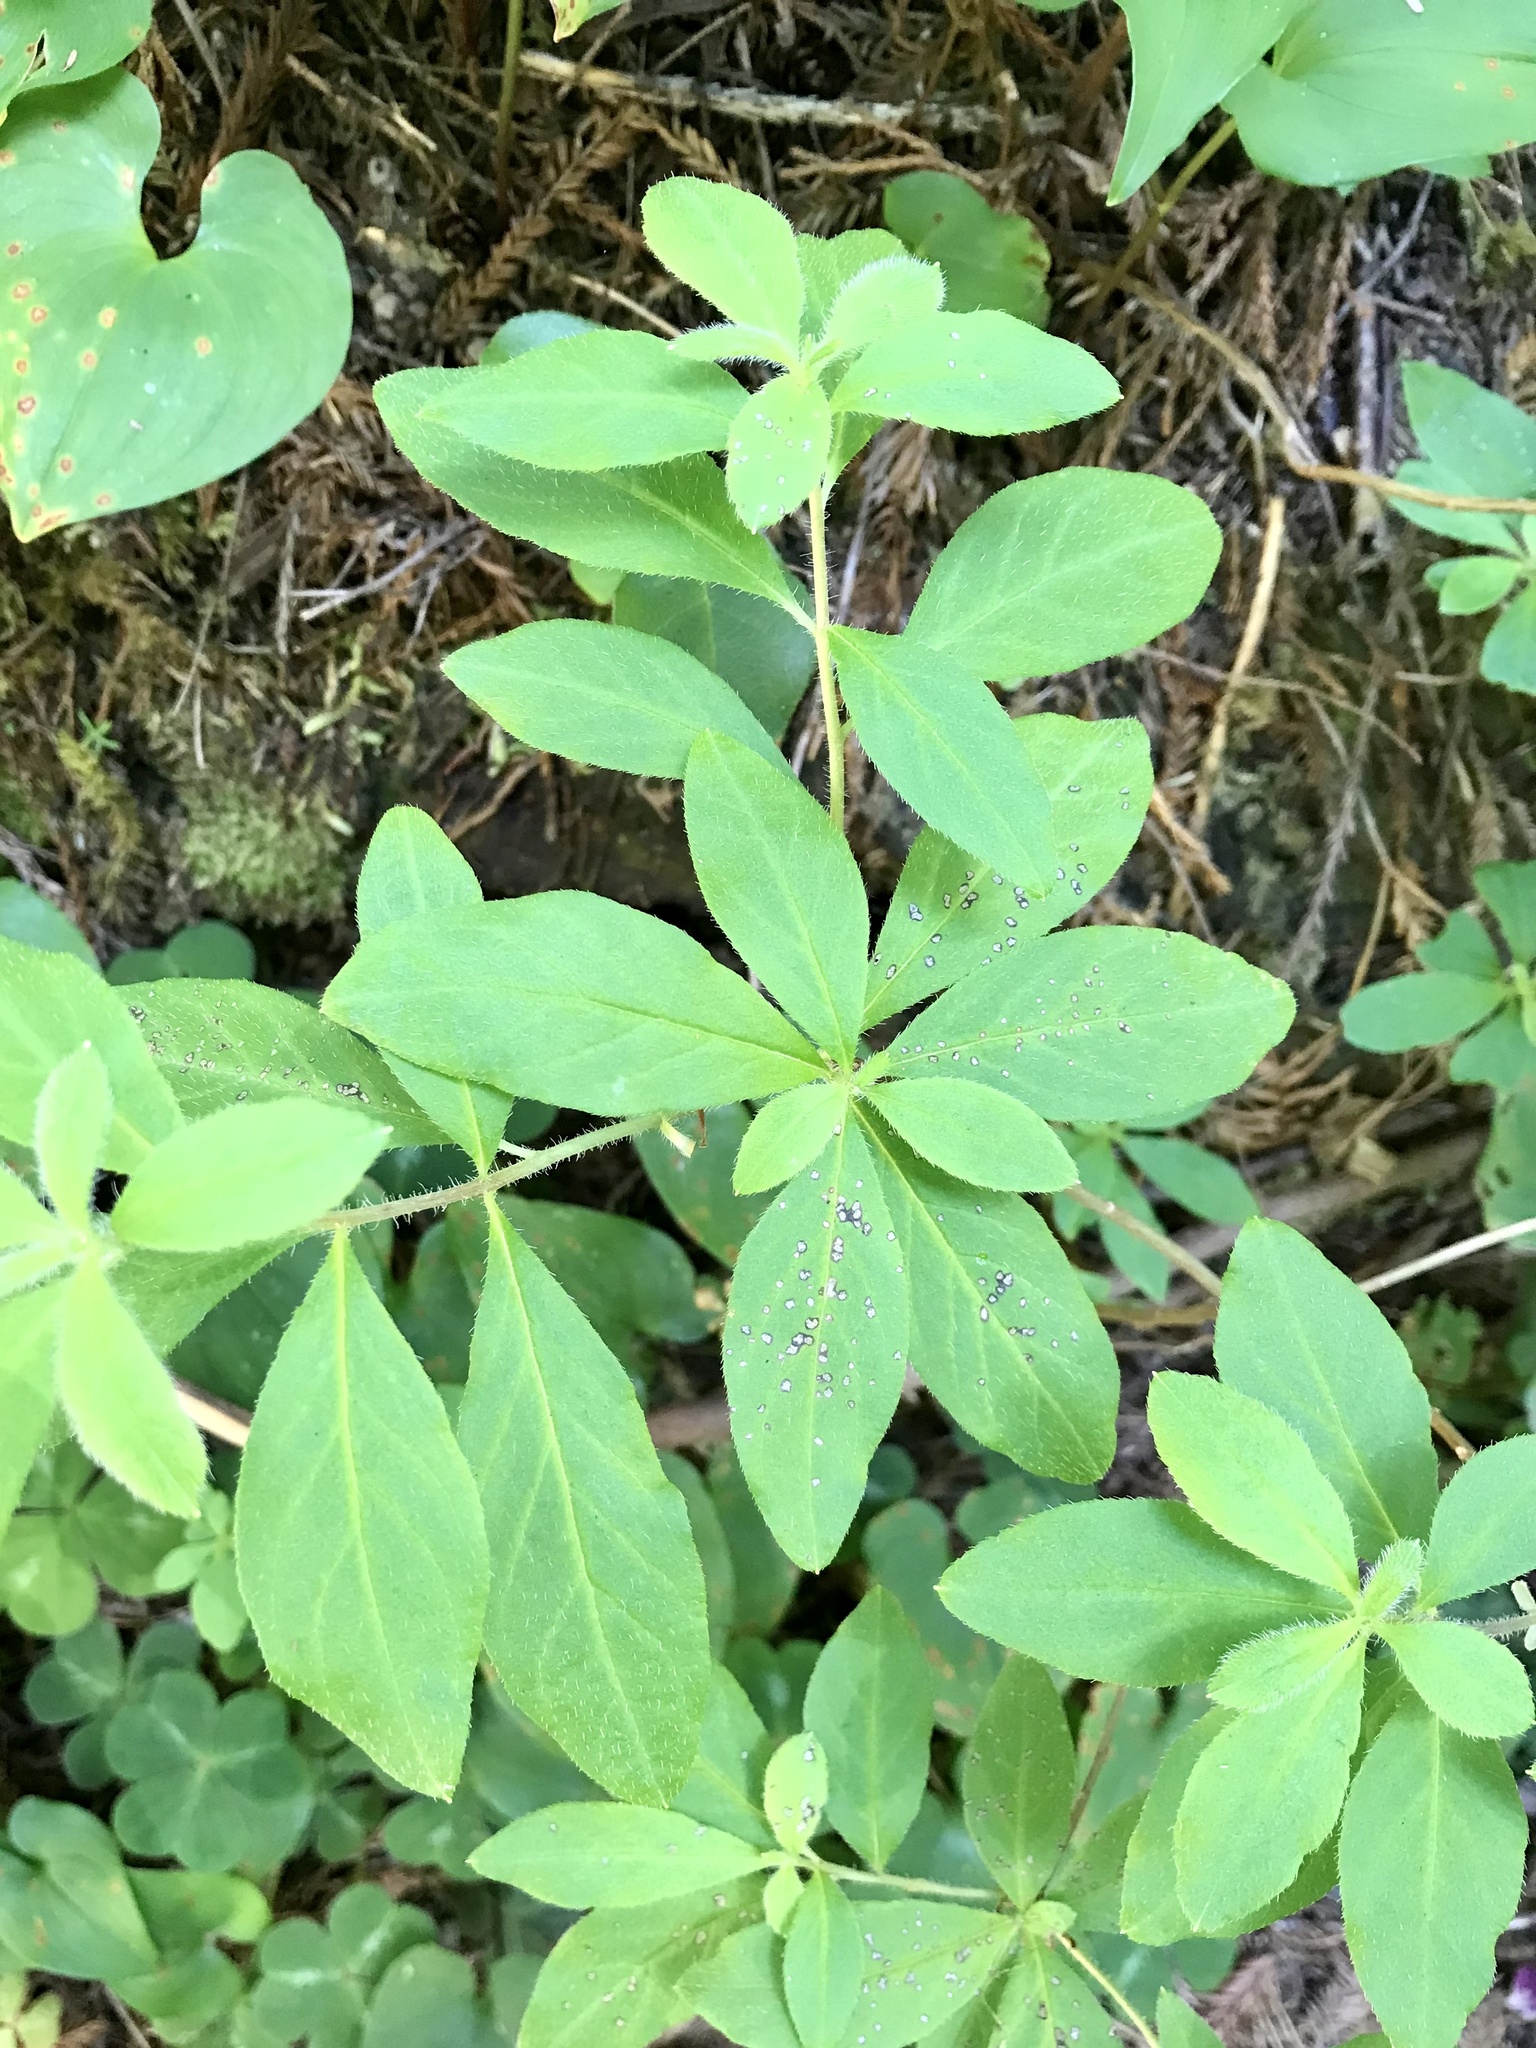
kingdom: Plantae
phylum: Tracheophyta
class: Magnoliopsida
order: Ericales
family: Ericaceae
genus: Rhododendron
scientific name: Rhododendron menziesii
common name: Pacific menziesia
